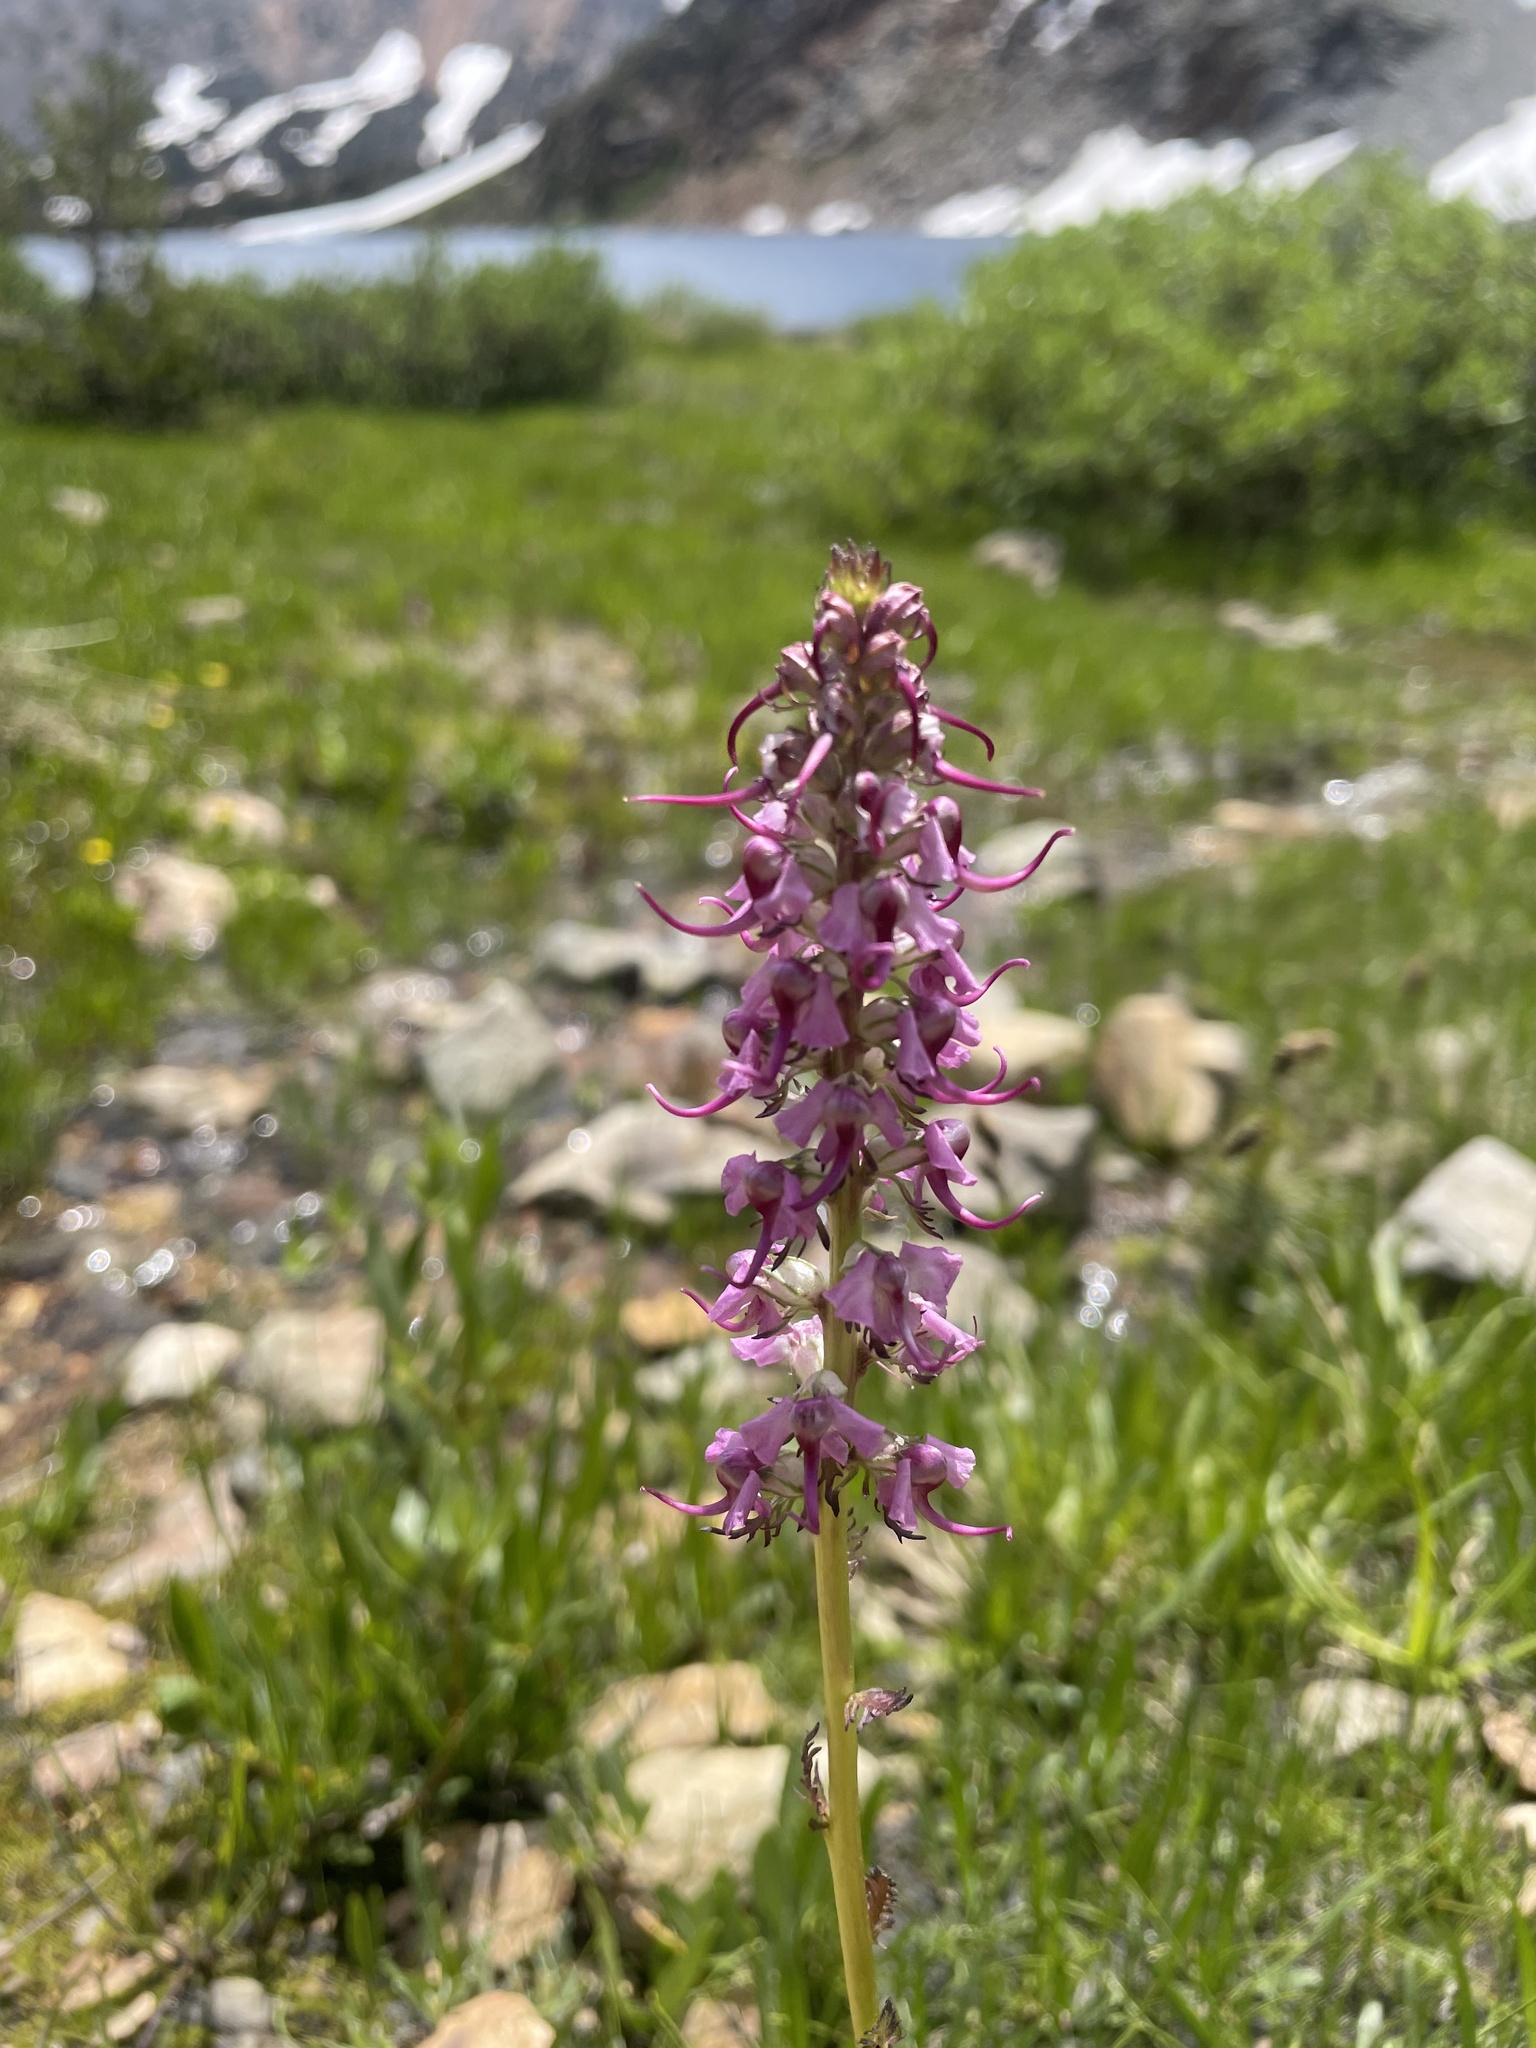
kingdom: Plantae
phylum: Tracheophyta
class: Magnoliopsida
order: Lamiales
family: Orobanchaceae
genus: Pedicularis
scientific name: Pedicularis groenlandica
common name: Elephant's-head
